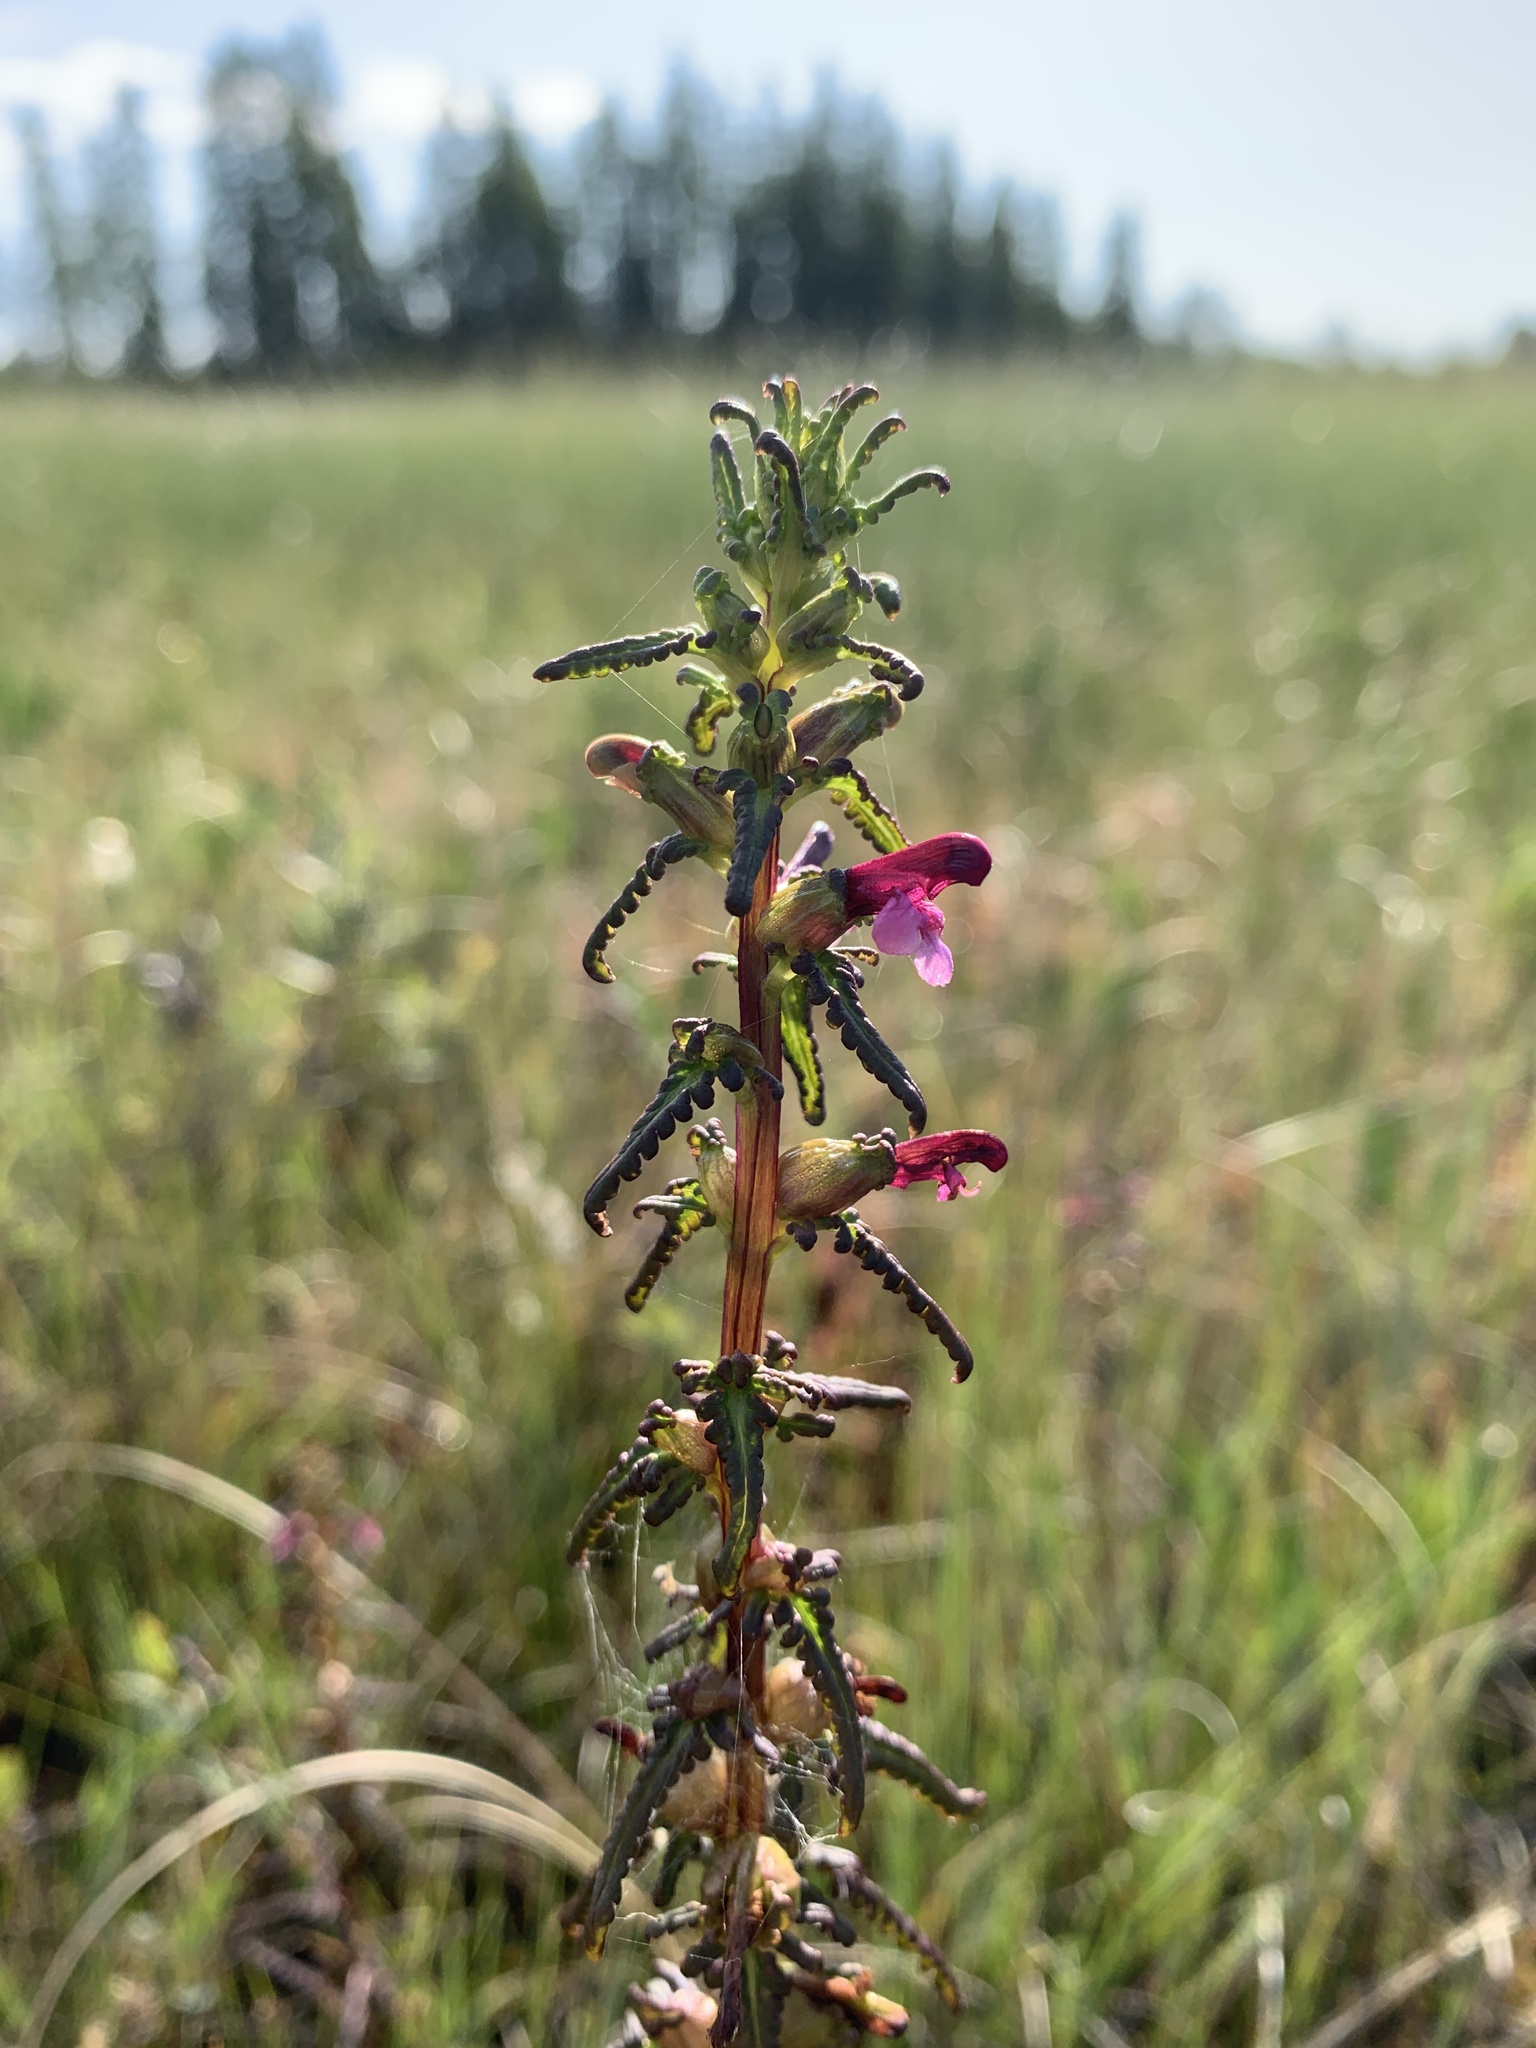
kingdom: Plantae
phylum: Tracheophyta
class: Magnoliopsida
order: Lamiales
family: Orobanchaceae
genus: Pedicularis
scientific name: Pedicularis parviflora
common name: Muskeg lousewort
